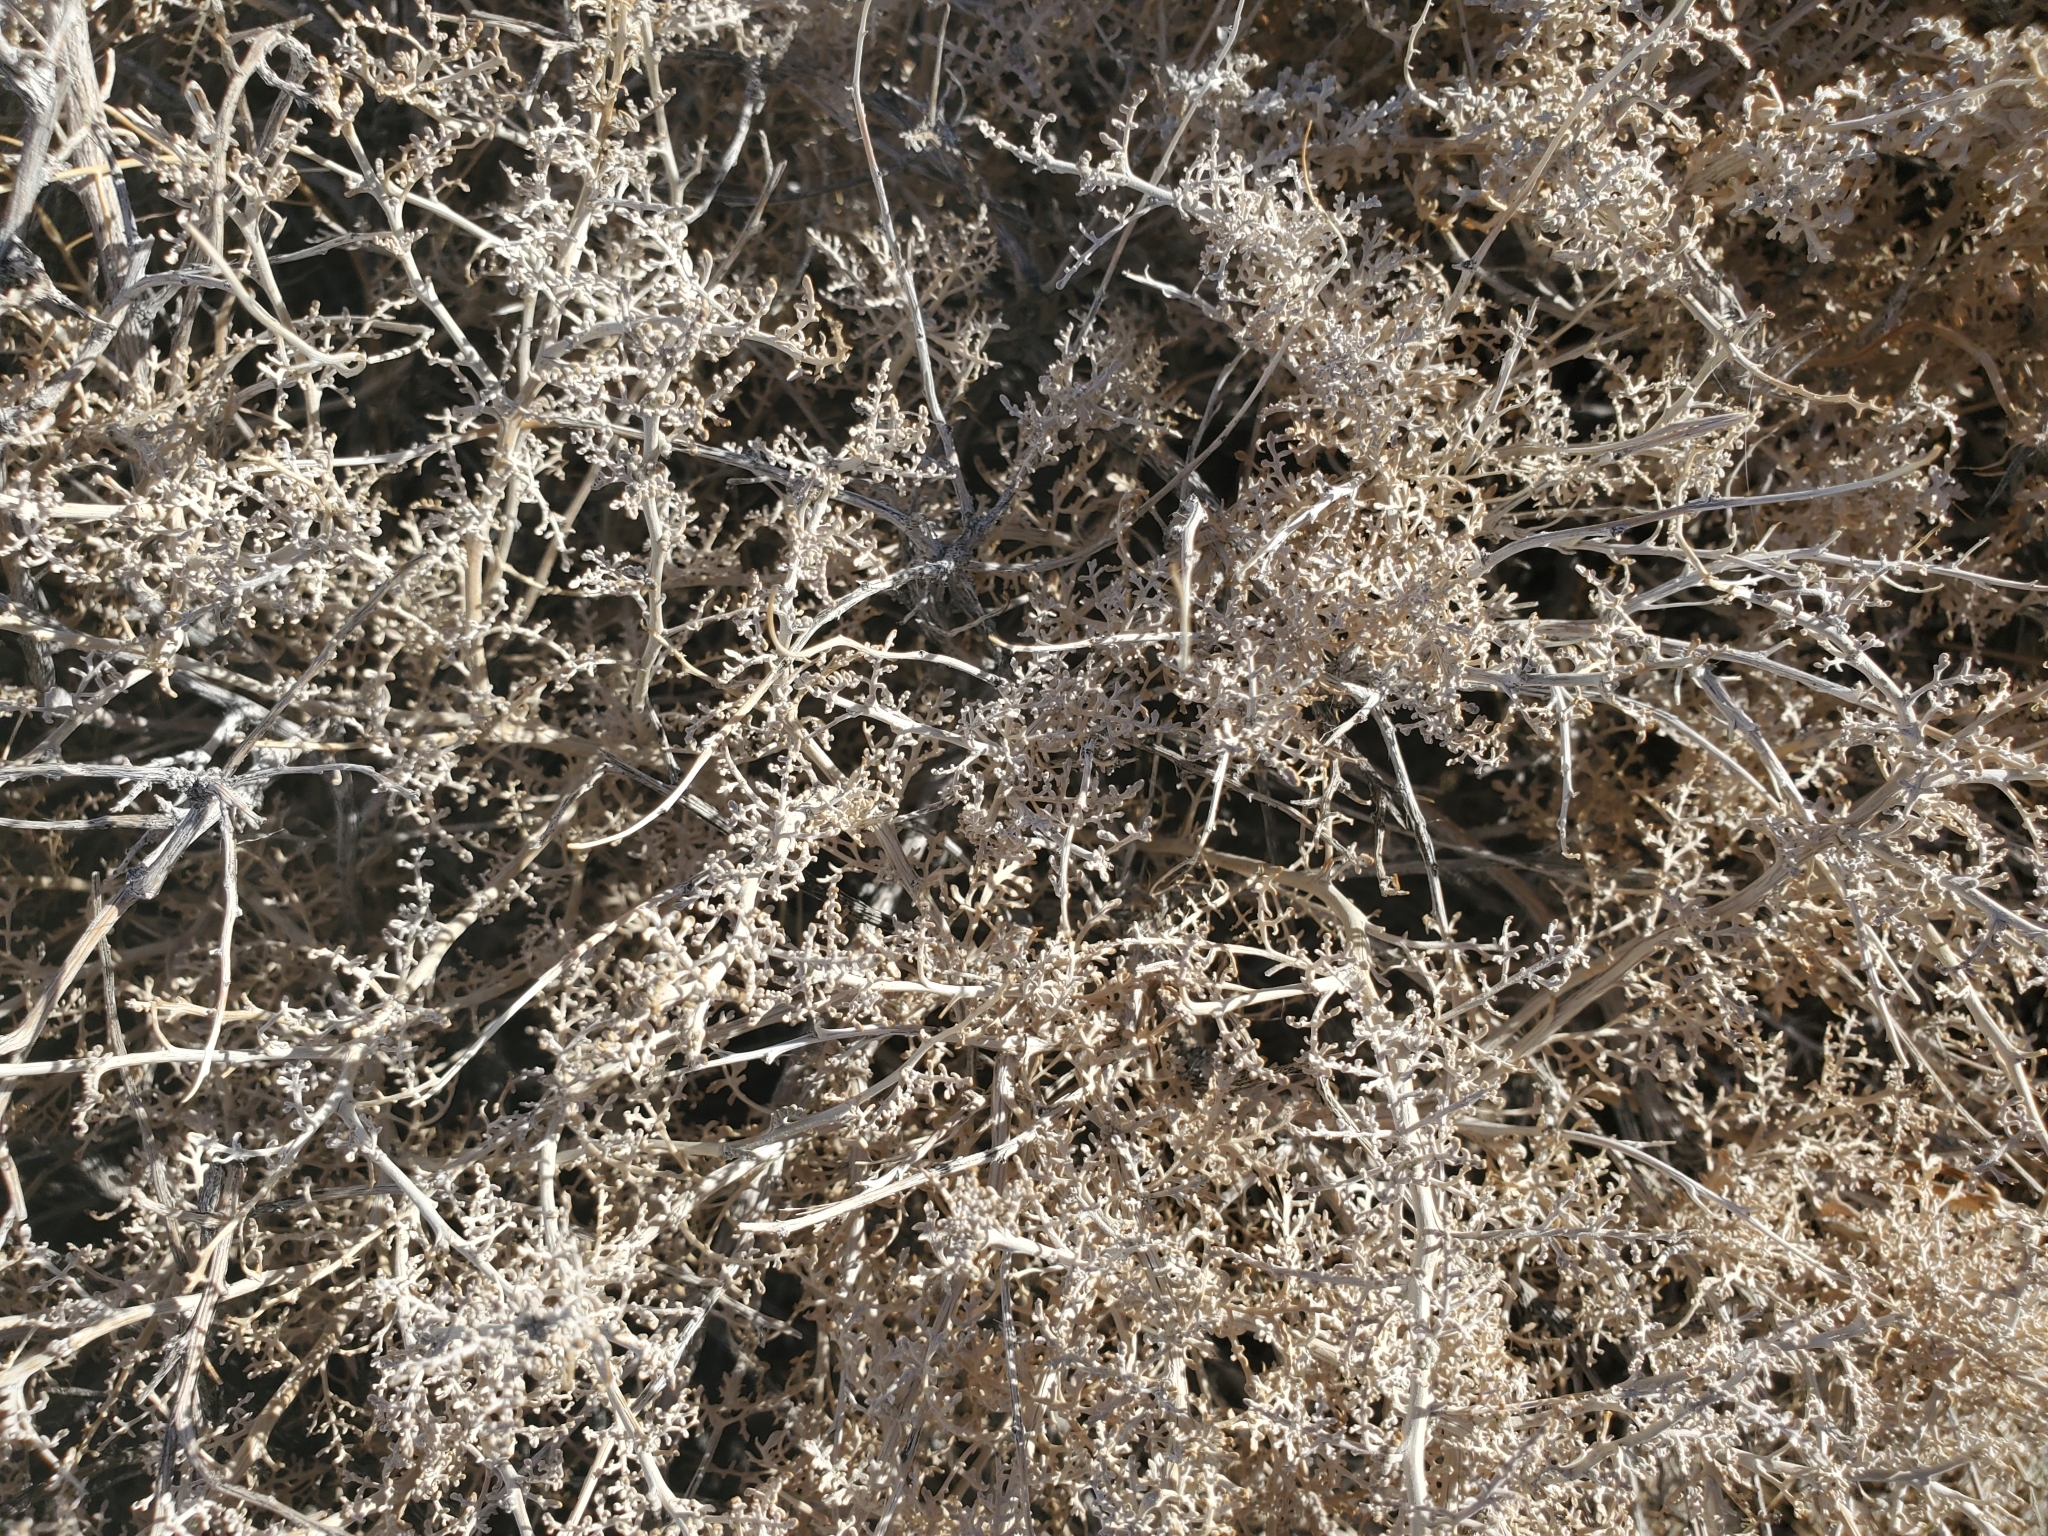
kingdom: Plantae
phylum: Tracheophyta
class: Magnoliopsida
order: Asterales
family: Asteraceae
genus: Ambrosia
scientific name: Ambrosia dumosa
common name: Bur-sage
